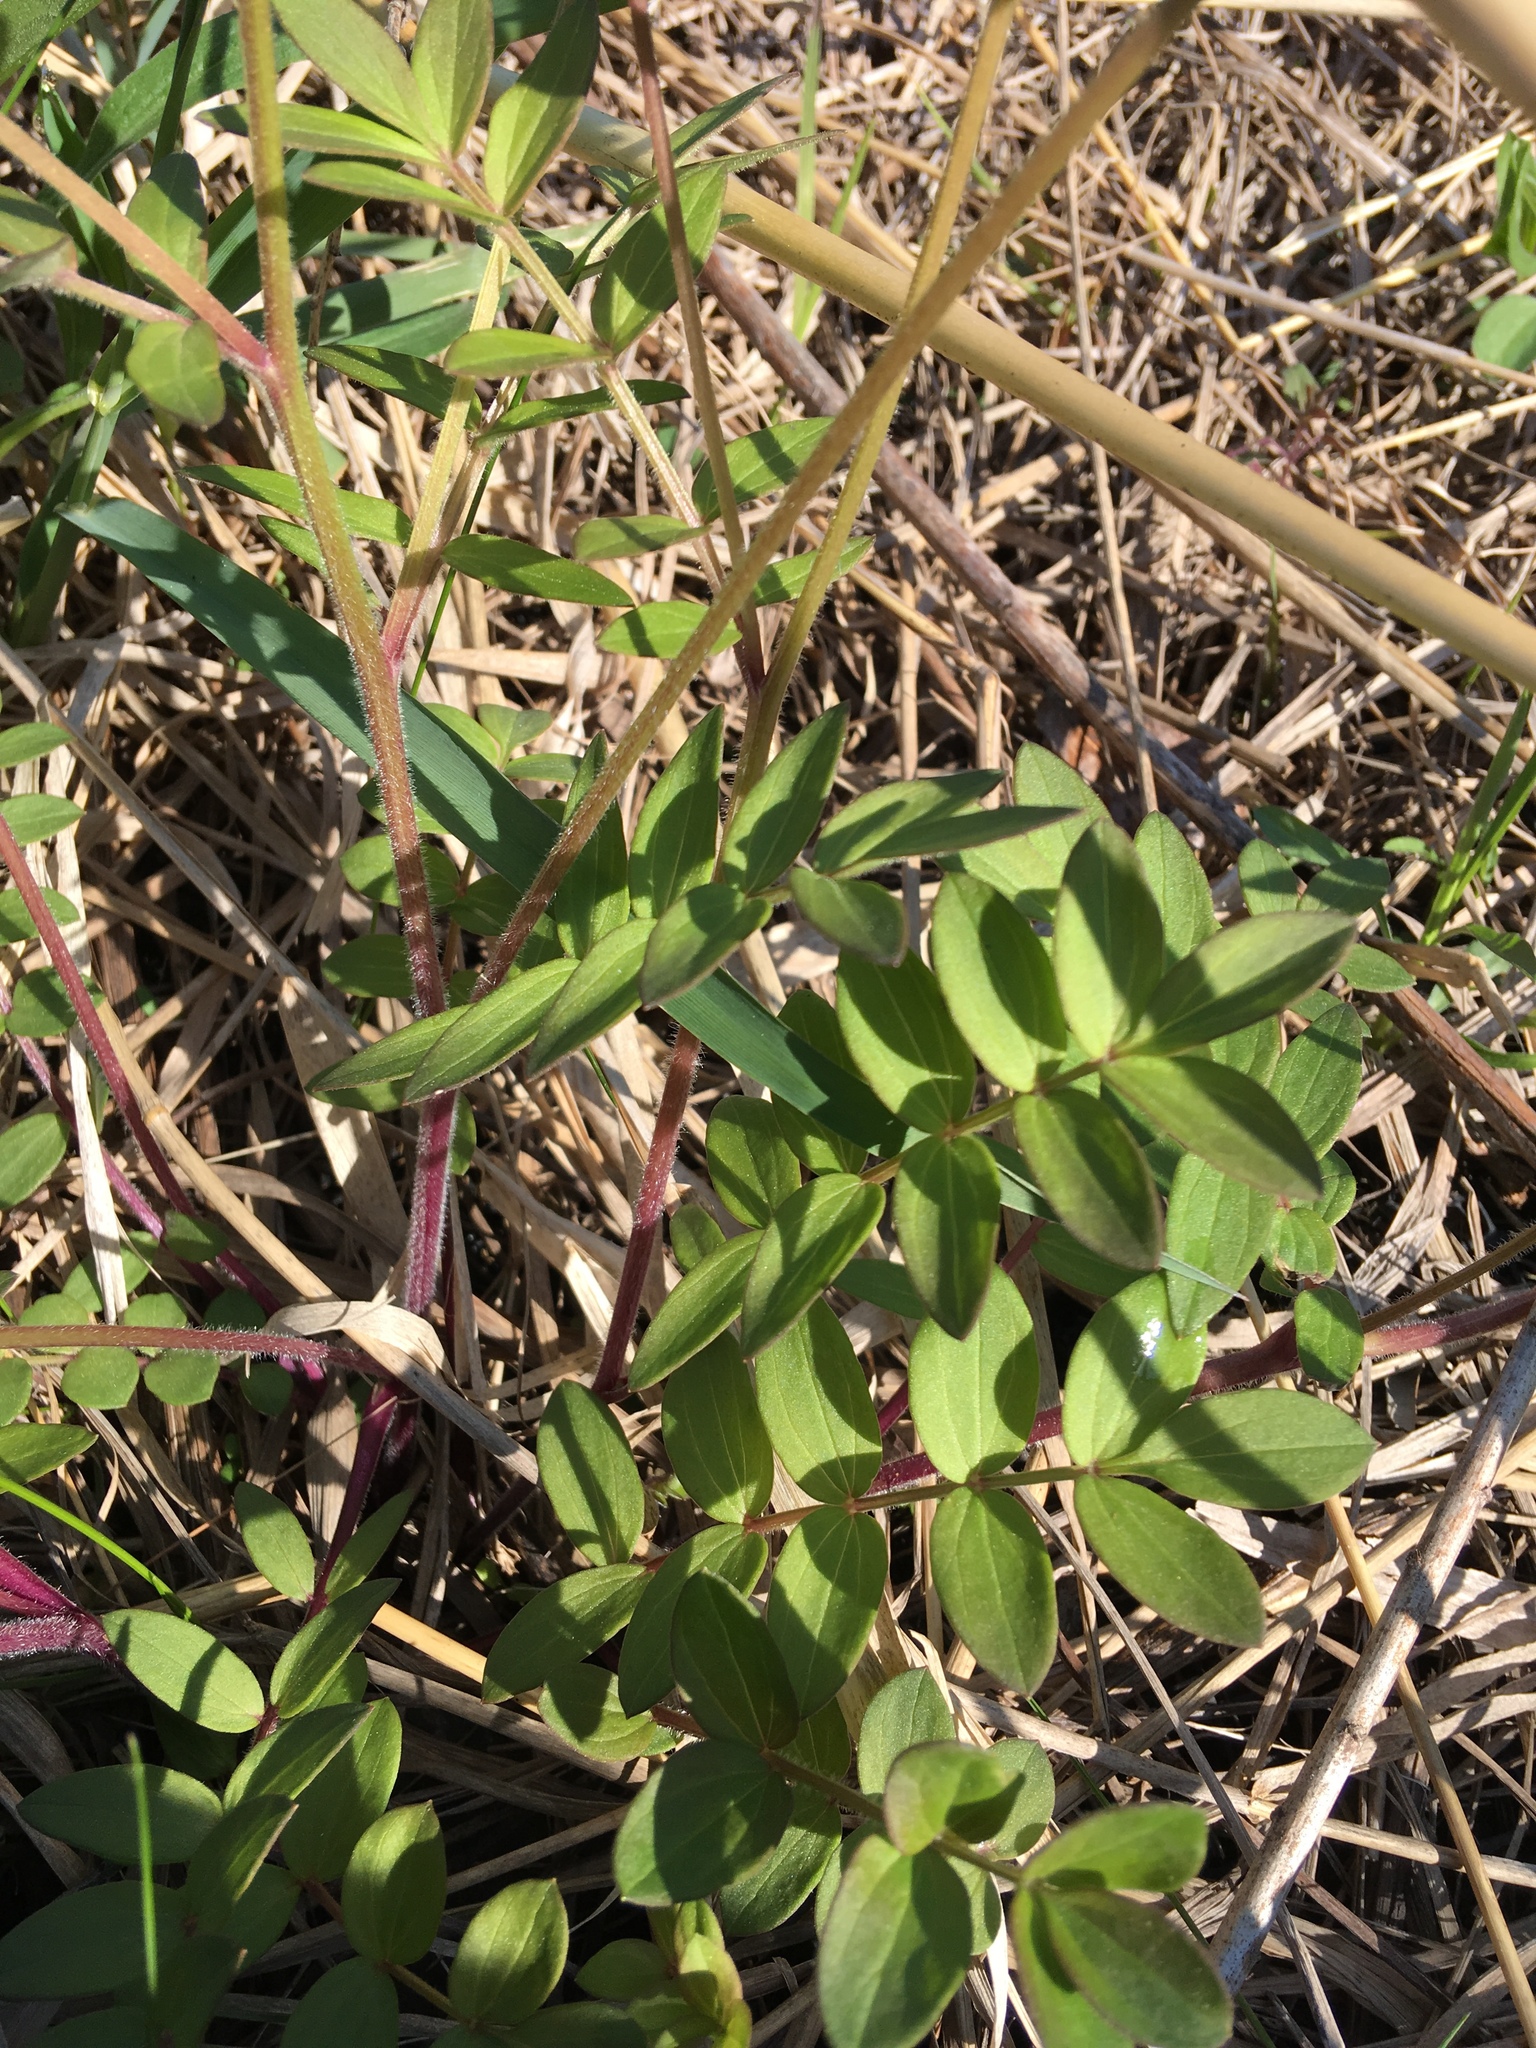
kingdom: Plantae
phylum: Tracheophyta
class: Magnoliopsida
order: Ericales
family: Polemoniaceae
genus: Polemonium
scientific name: Polemonium reptans
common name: Creeping jacob's-ladder
